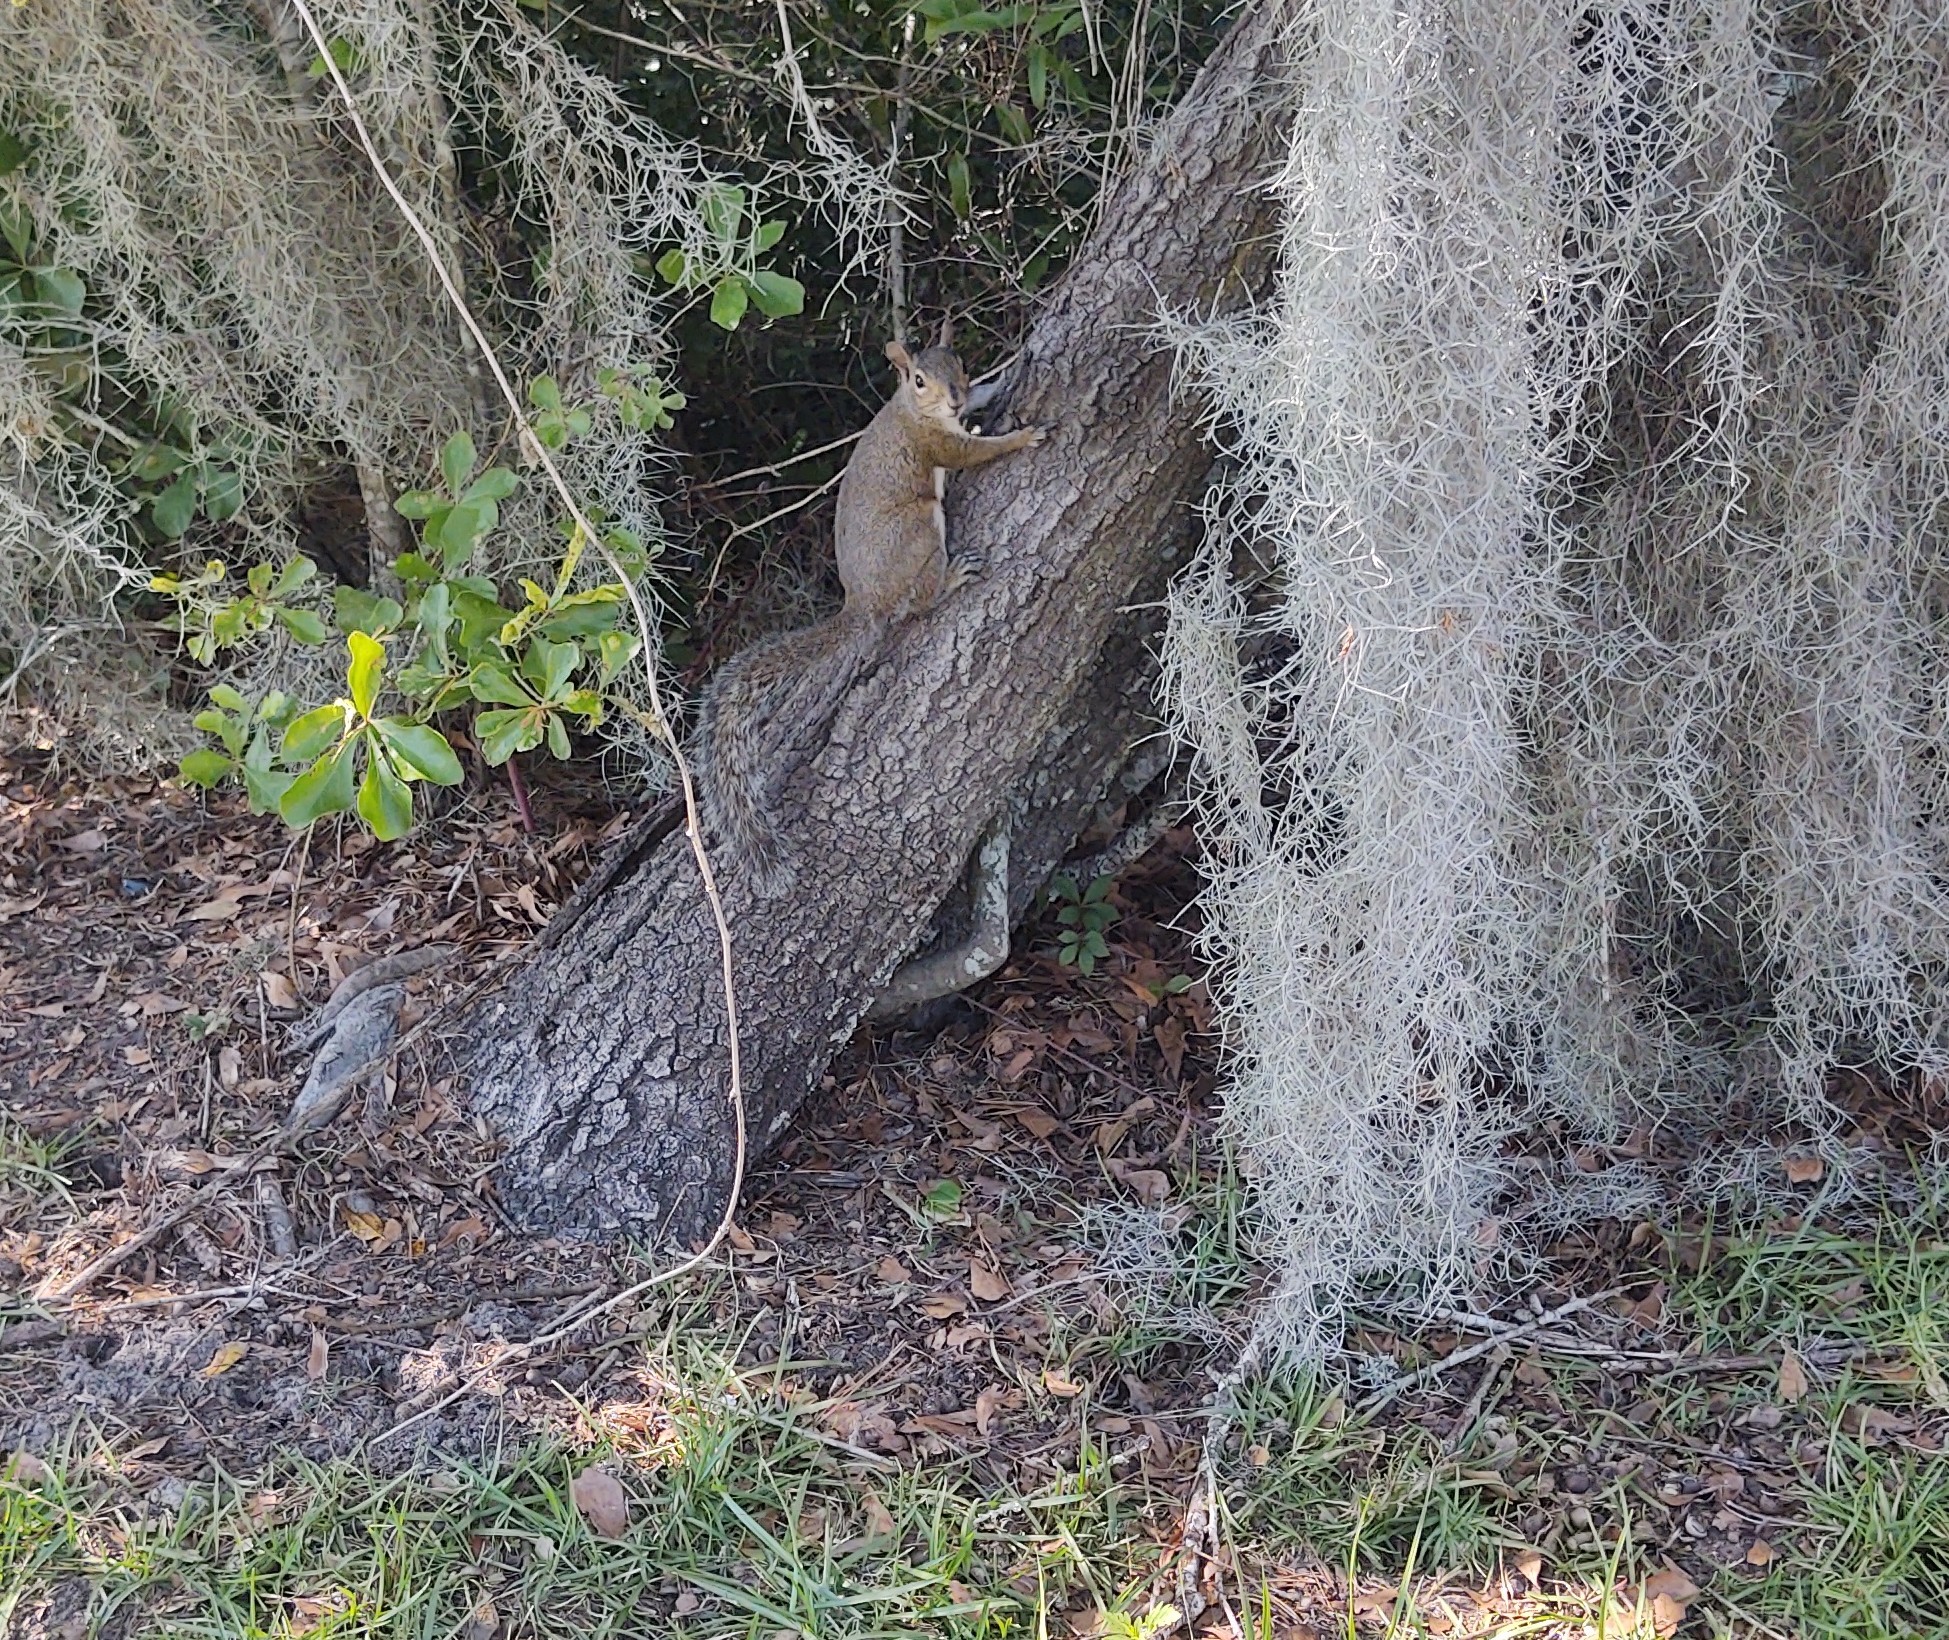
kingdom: Animalia
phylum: Chordata
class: Mammalia
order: Rodentia
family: Sciuridae
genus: Sciurus
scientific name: Sciurus carolinensis
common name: Eastern gray squirrel
